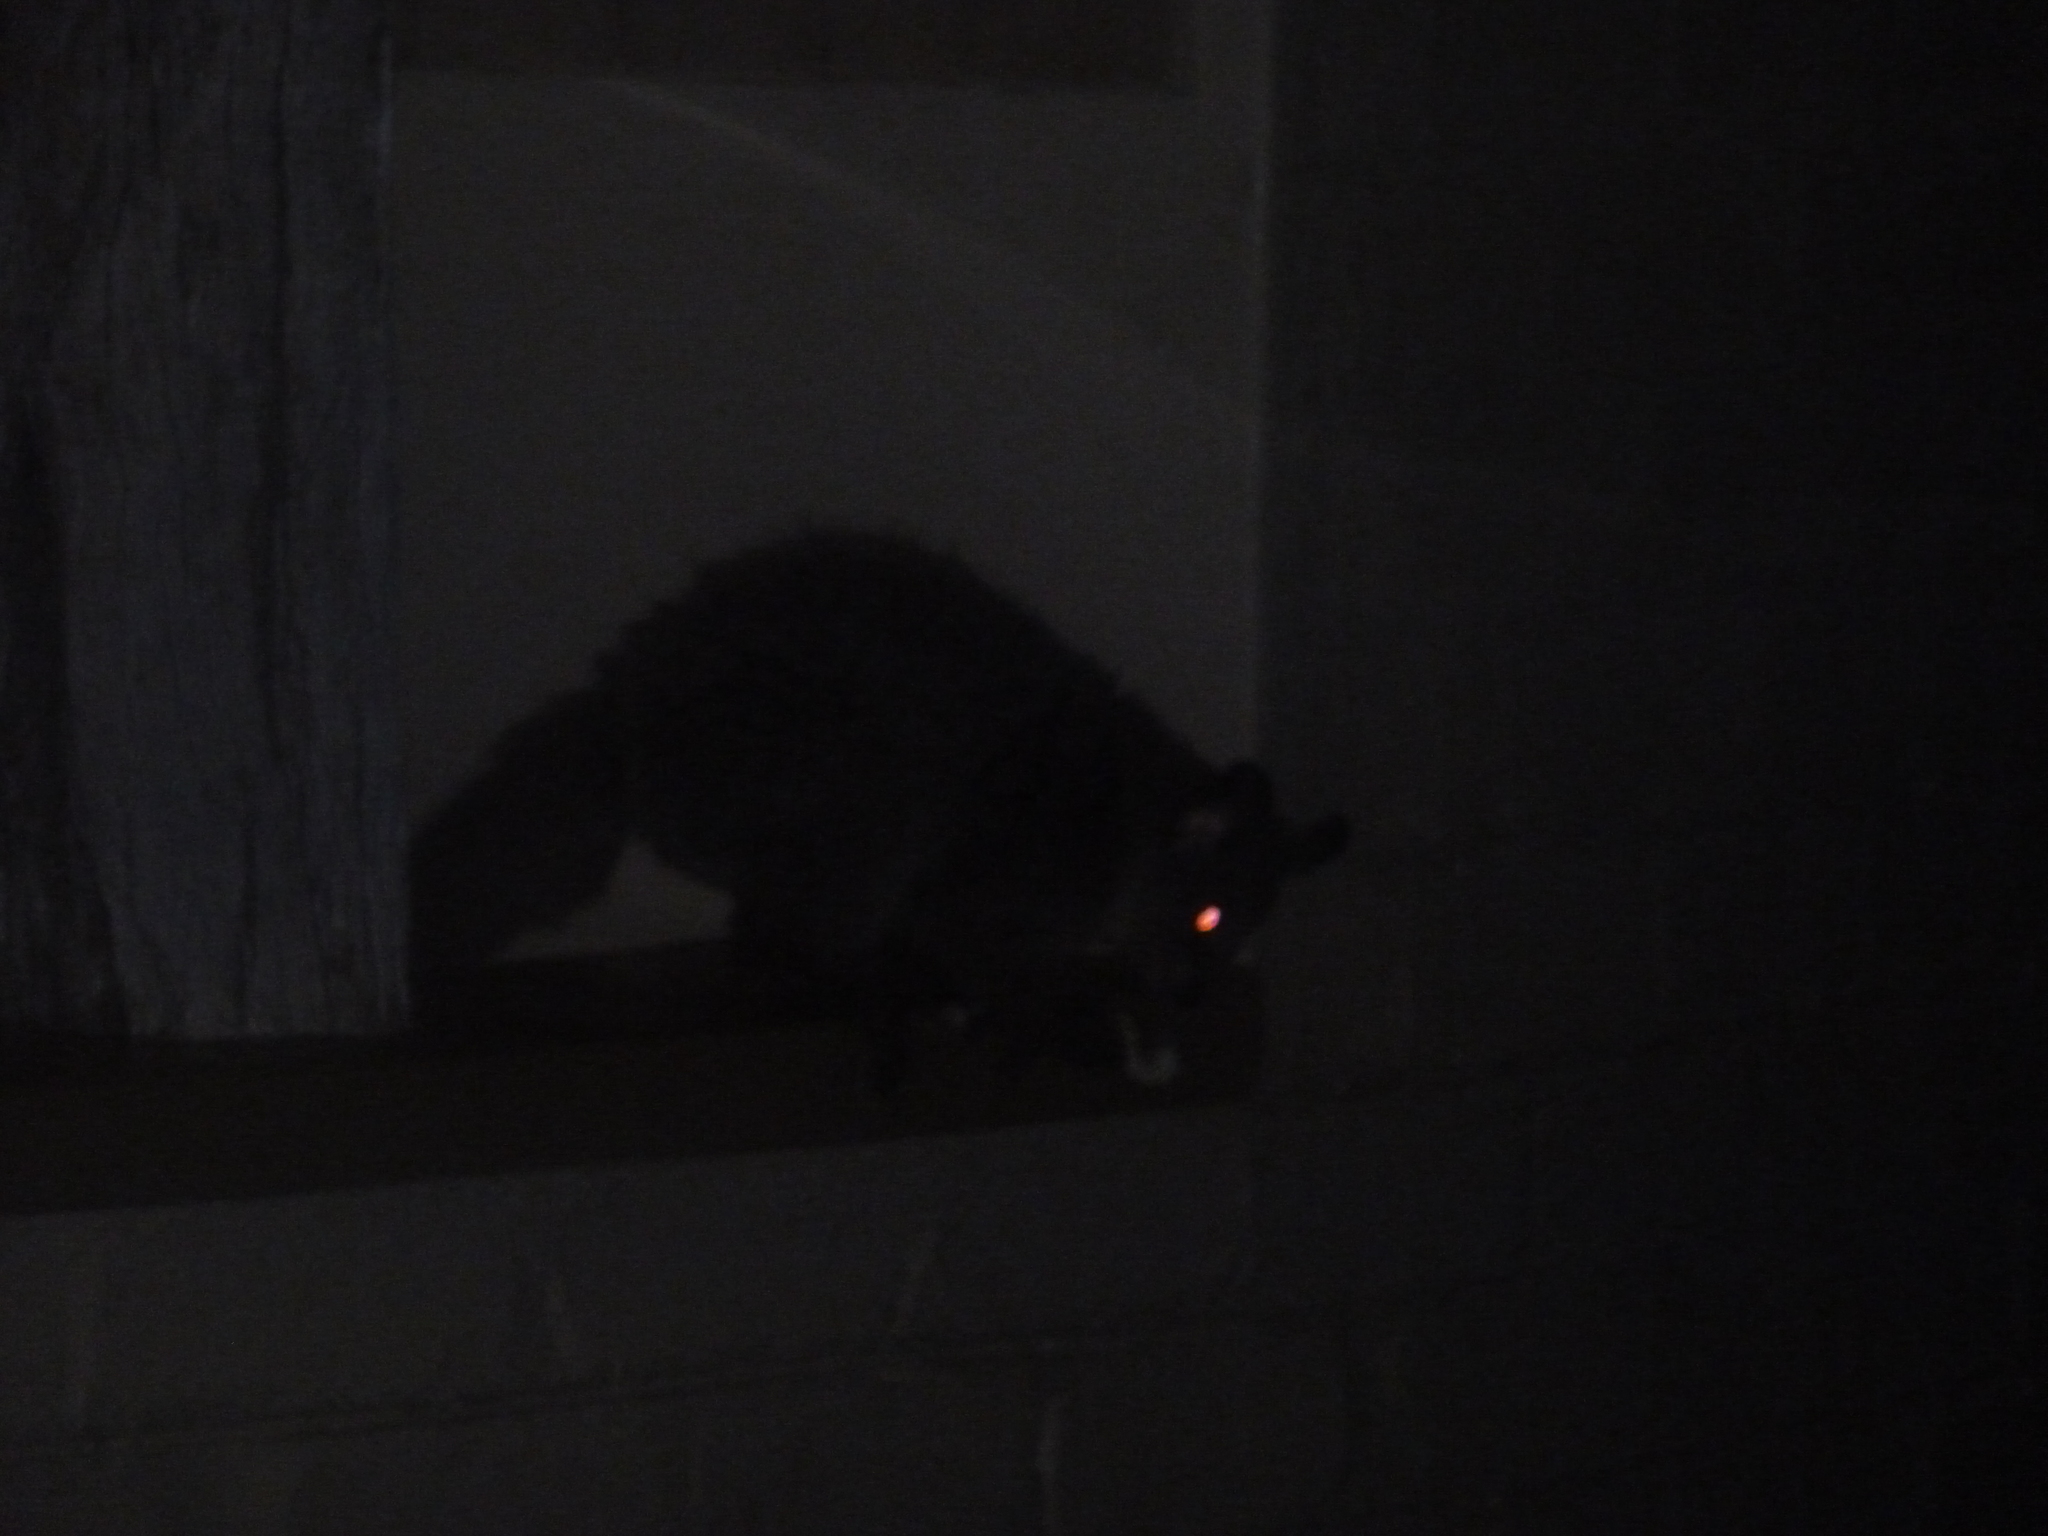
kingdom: Animalia
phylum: Chordata
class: Mammalia
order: Primates
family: Galagidae
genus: Otolemur
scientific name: Otolemur crassicaudatus
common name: Brown greater galago
